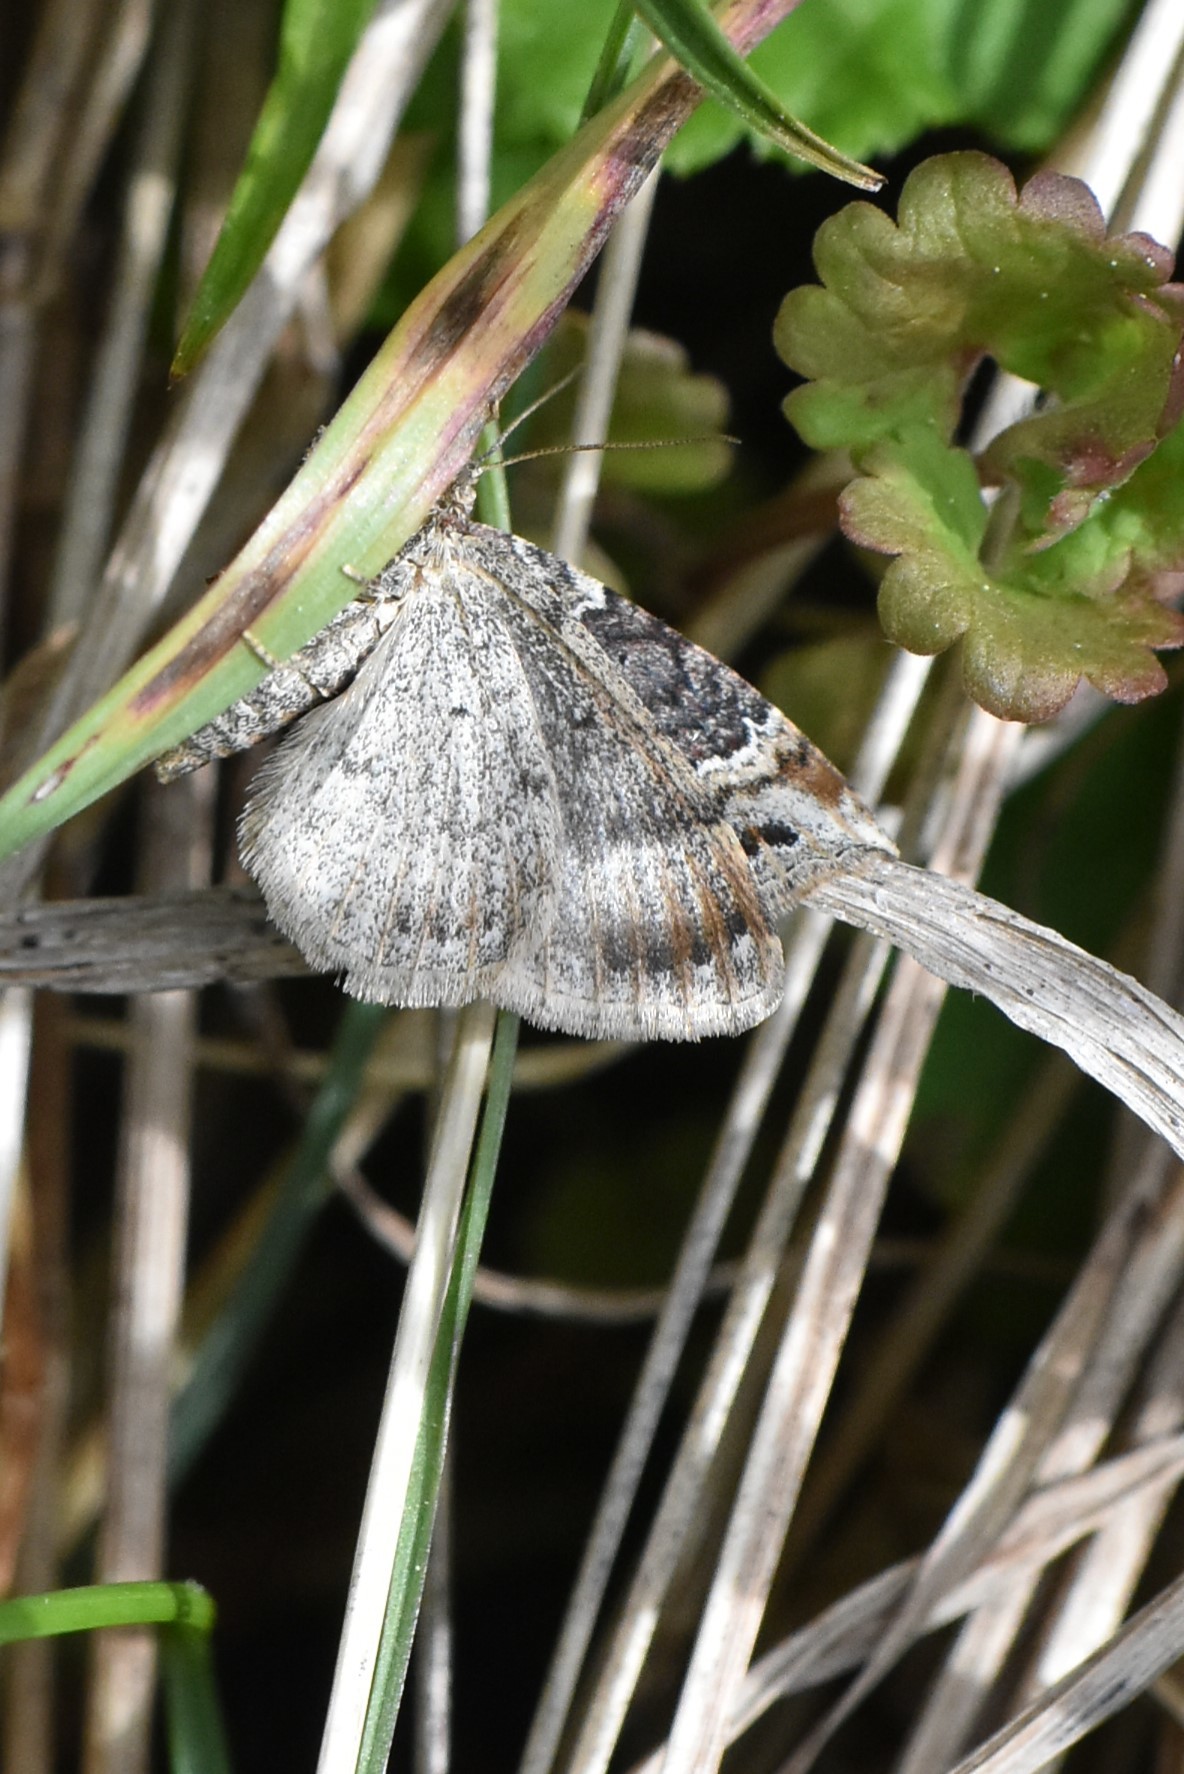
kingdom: Animalia
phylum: Arthropoda
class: Insecta
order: Lepidoptera
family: Geometridae
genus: Xanthorhoe
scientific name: Xanthorhoe spadicearia
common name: Red twin-spot carpet
